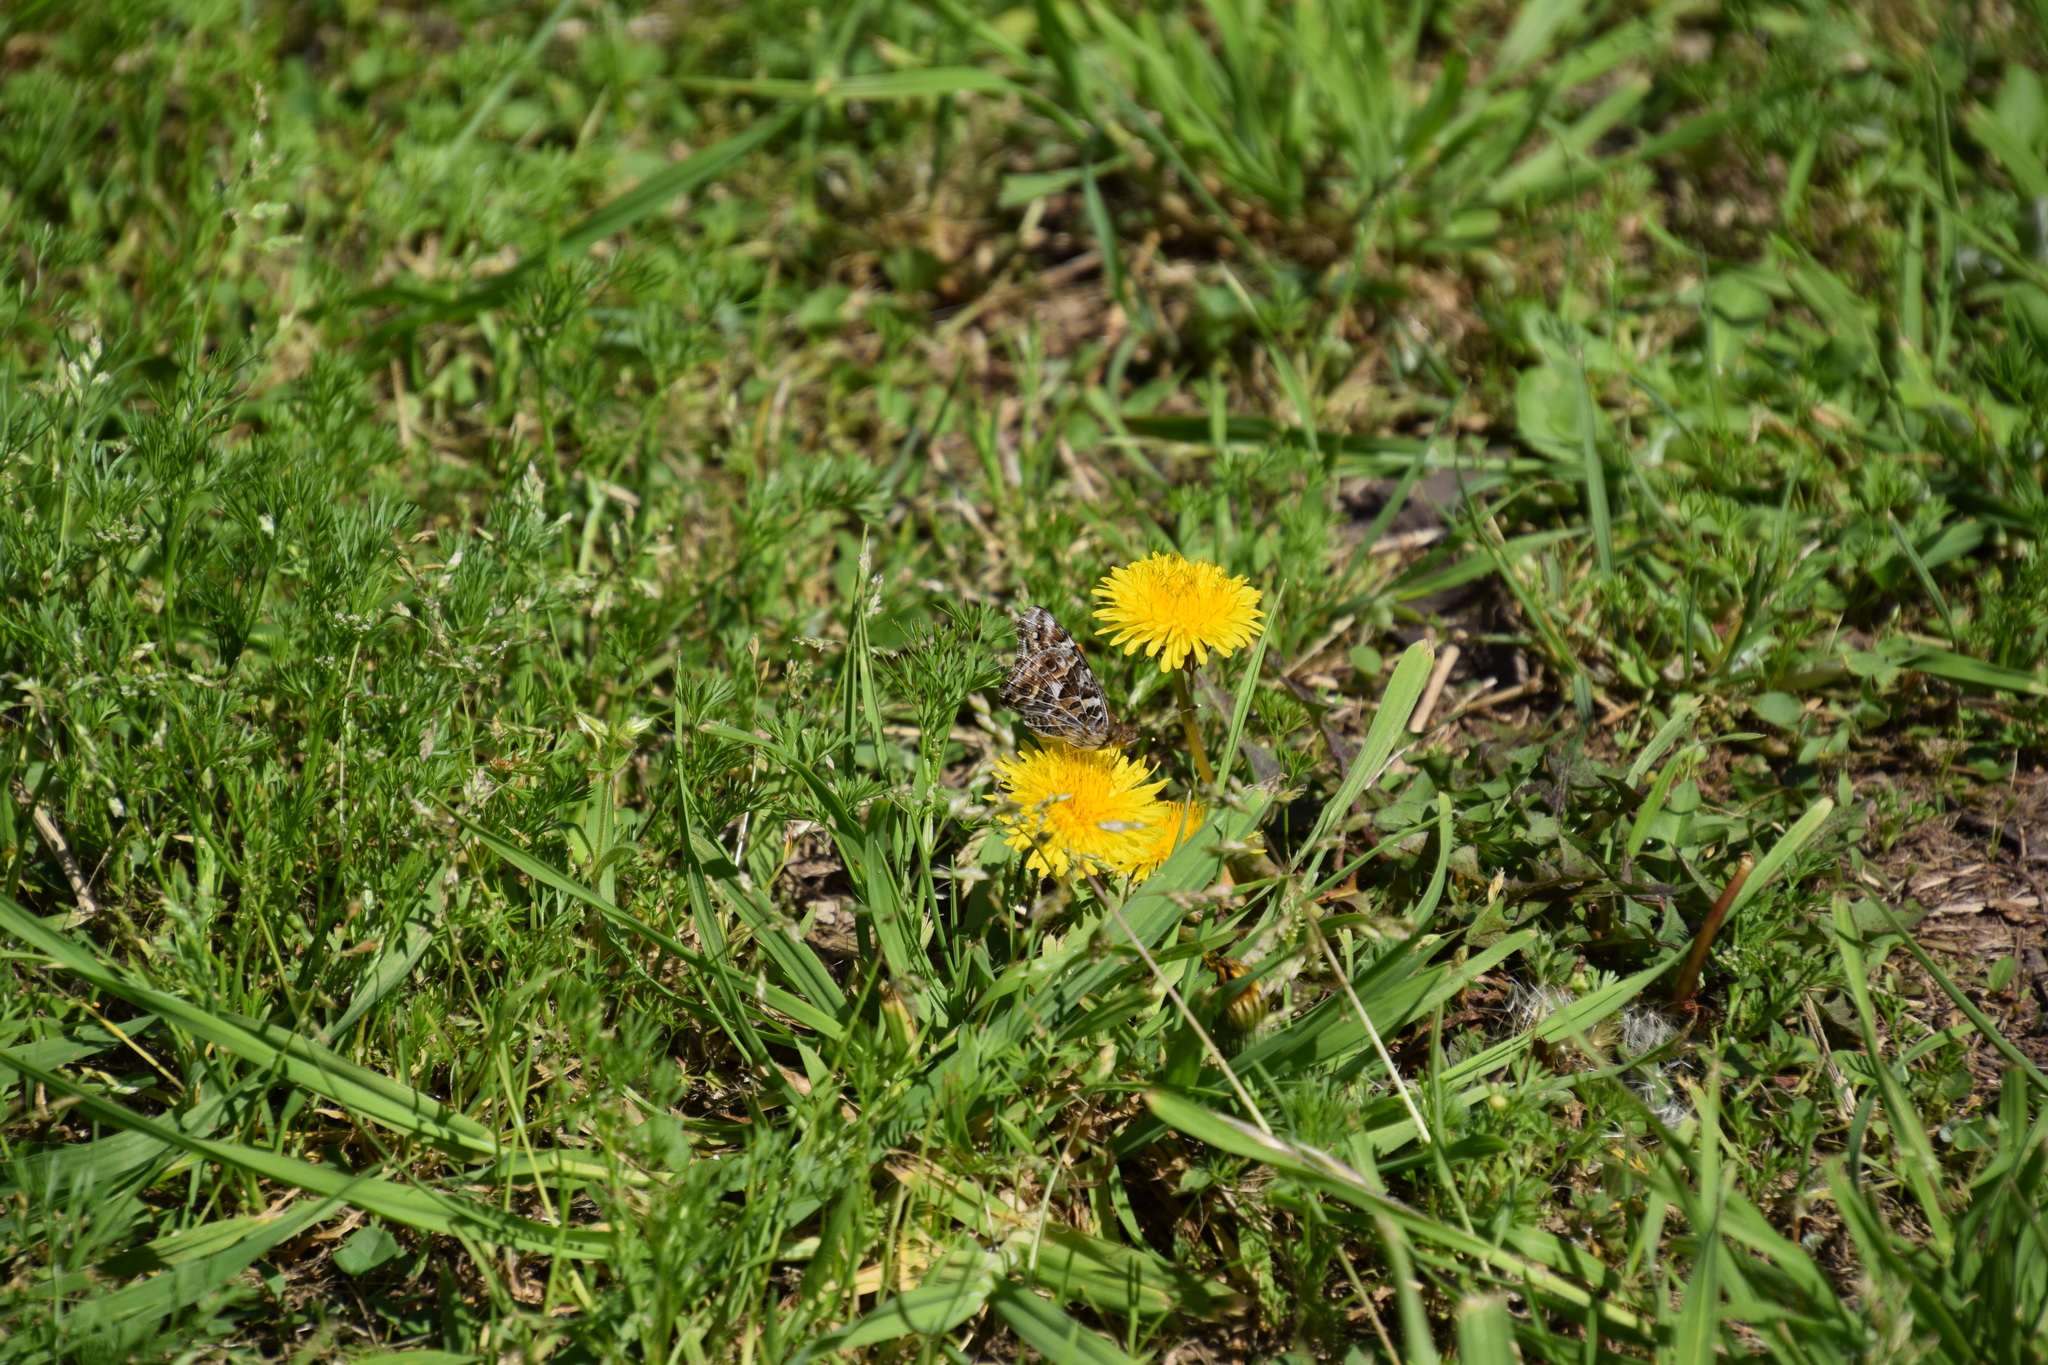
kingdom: Animalia
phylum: Arthropoda
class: Insecta
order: Lepidoptera
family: Nymphalidae
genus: Vanessa
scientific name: Vanessa kershawi
